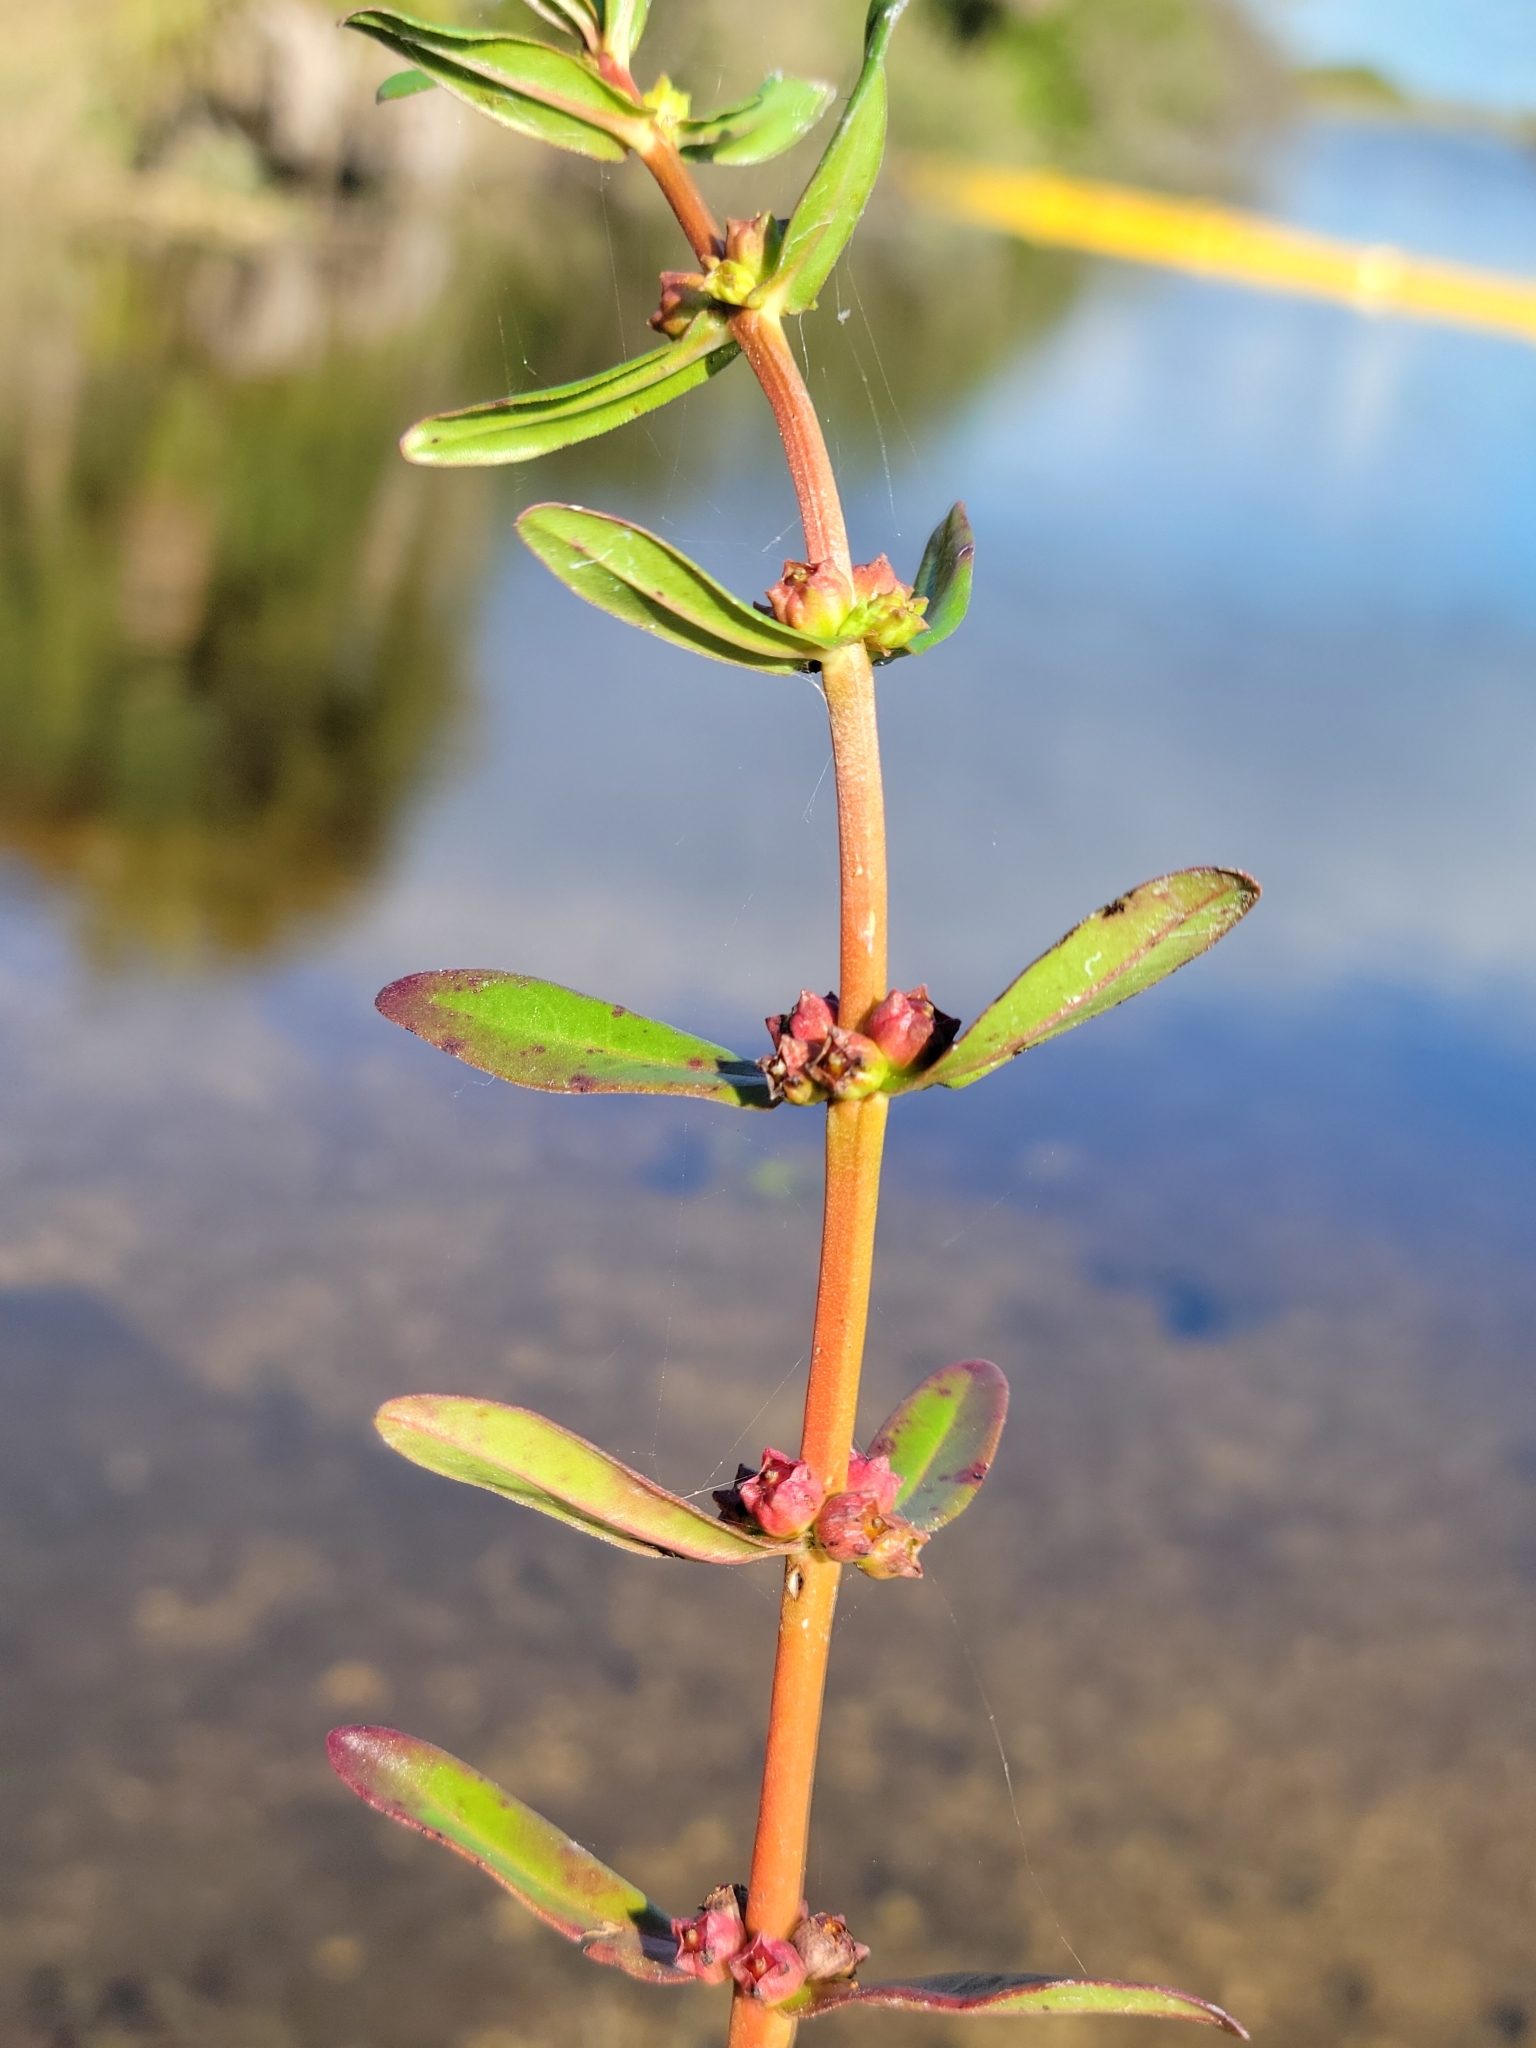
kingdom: Plantae
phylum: Tracheophyta
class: Magnoliopsida
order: Myrtales
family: Lythraceae
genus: Ammannia
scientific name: Ammannia latifolia
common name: Toothcup
